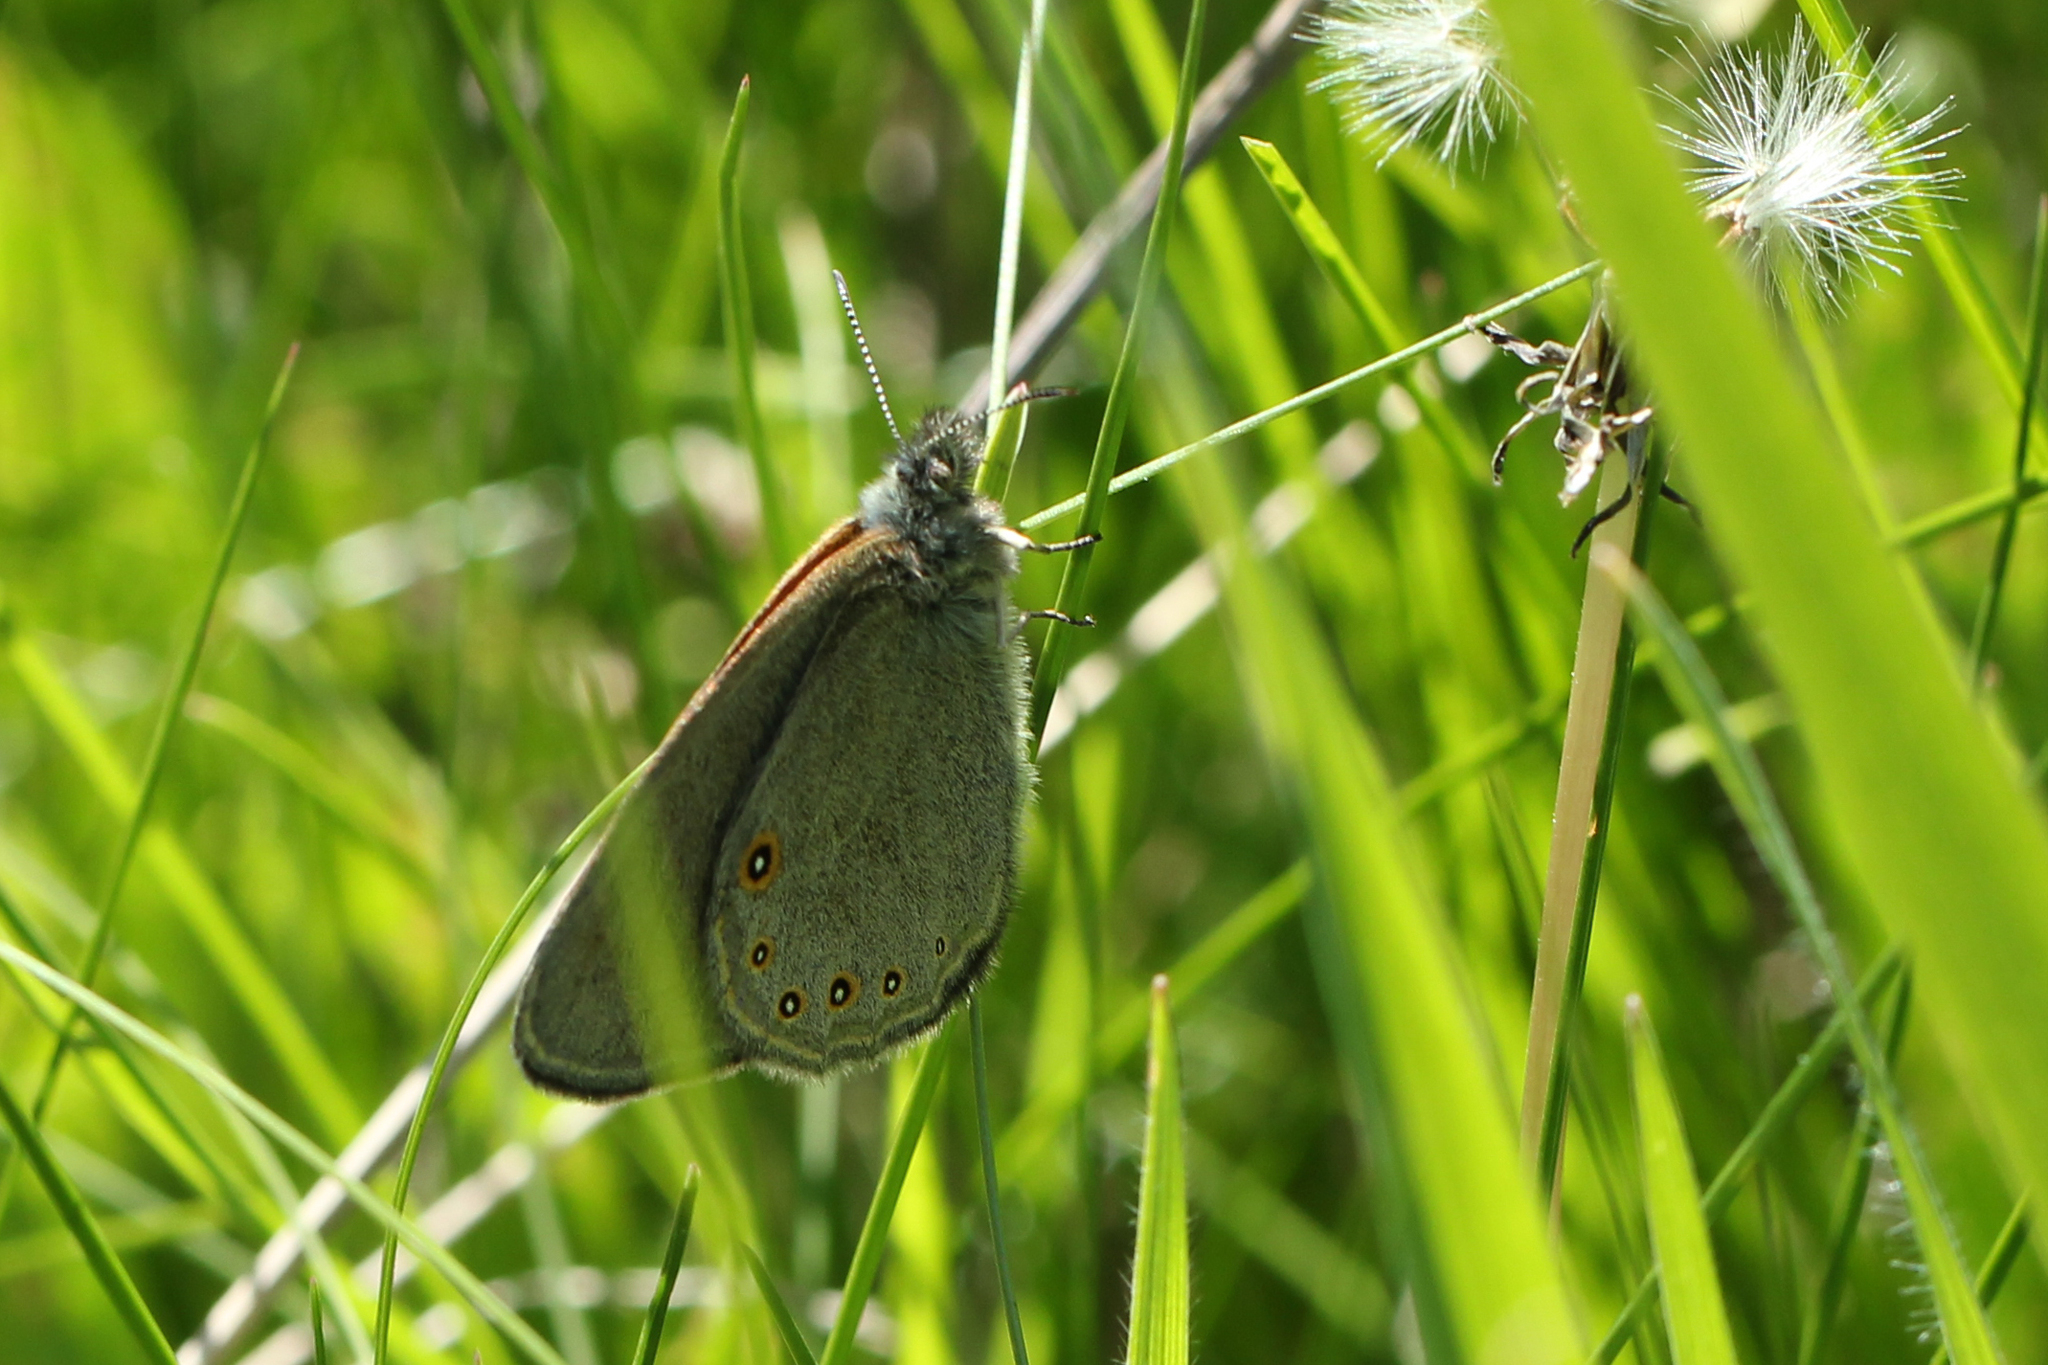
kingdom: Animalia
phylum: Arthropoda
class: Insecta
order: Lepidoptera
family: Nymphalidae
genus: Coenonympha
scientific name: Coenonympha haydeni
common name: Hayden's ringlet
